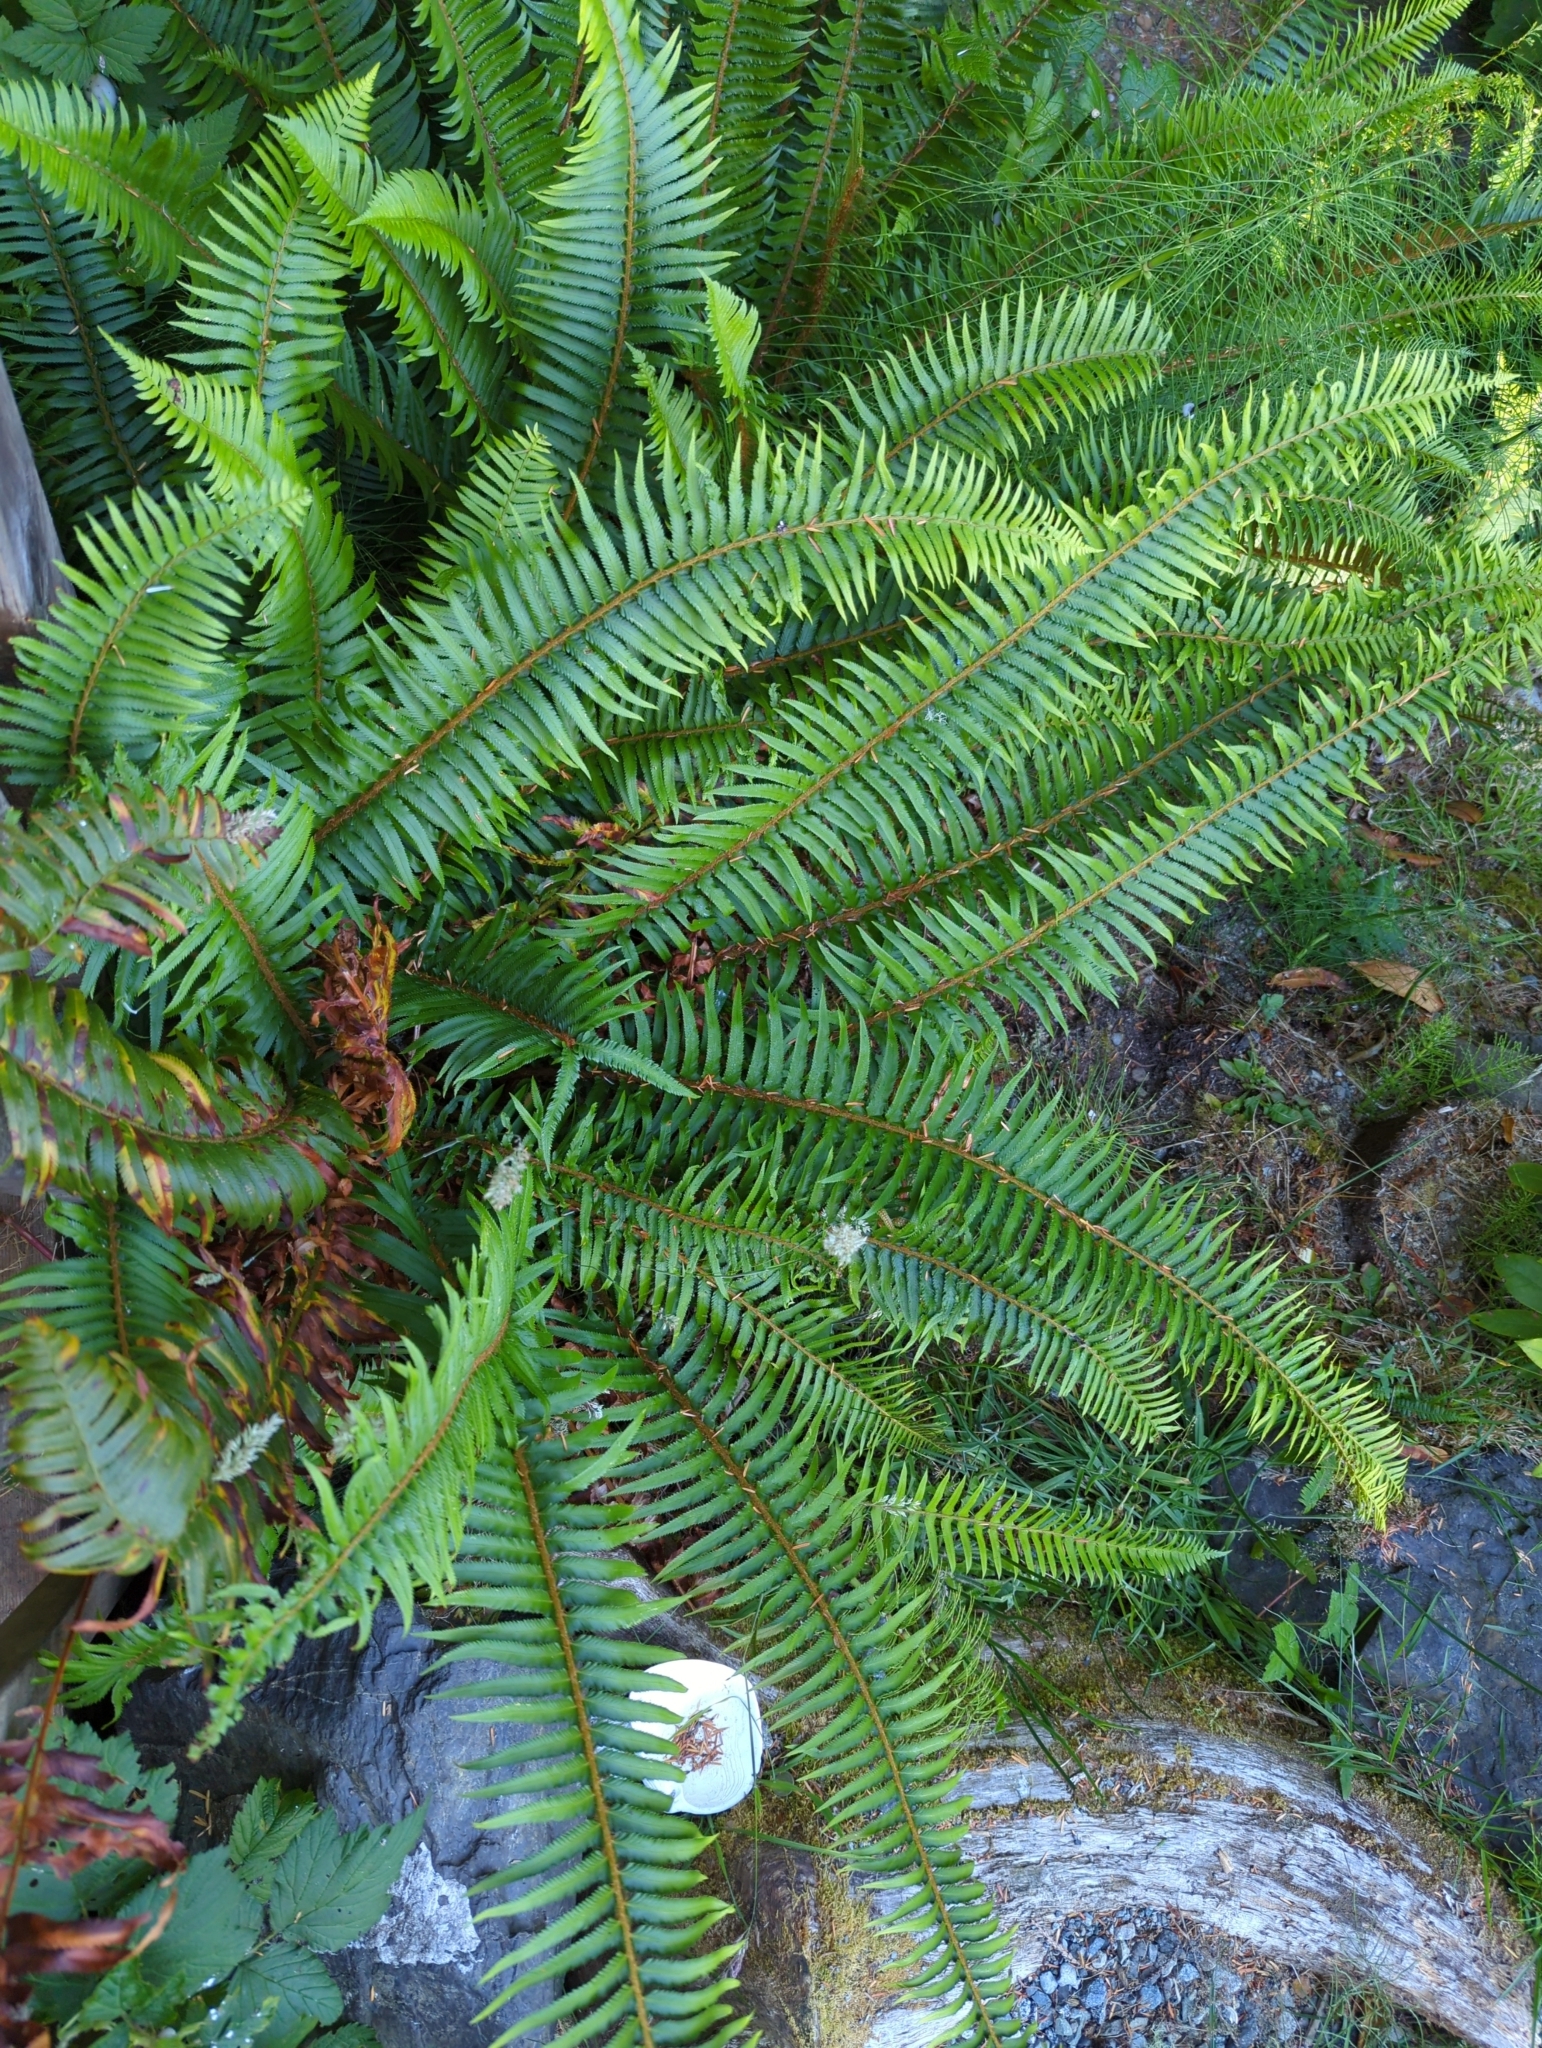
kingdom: Plantae
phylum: Tracheophyta
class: Polypodiopsida
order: Polypodiales
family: Dryopteridaceae
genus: Polystichum
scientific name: Polystichum munitum
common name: Western sword-fern
